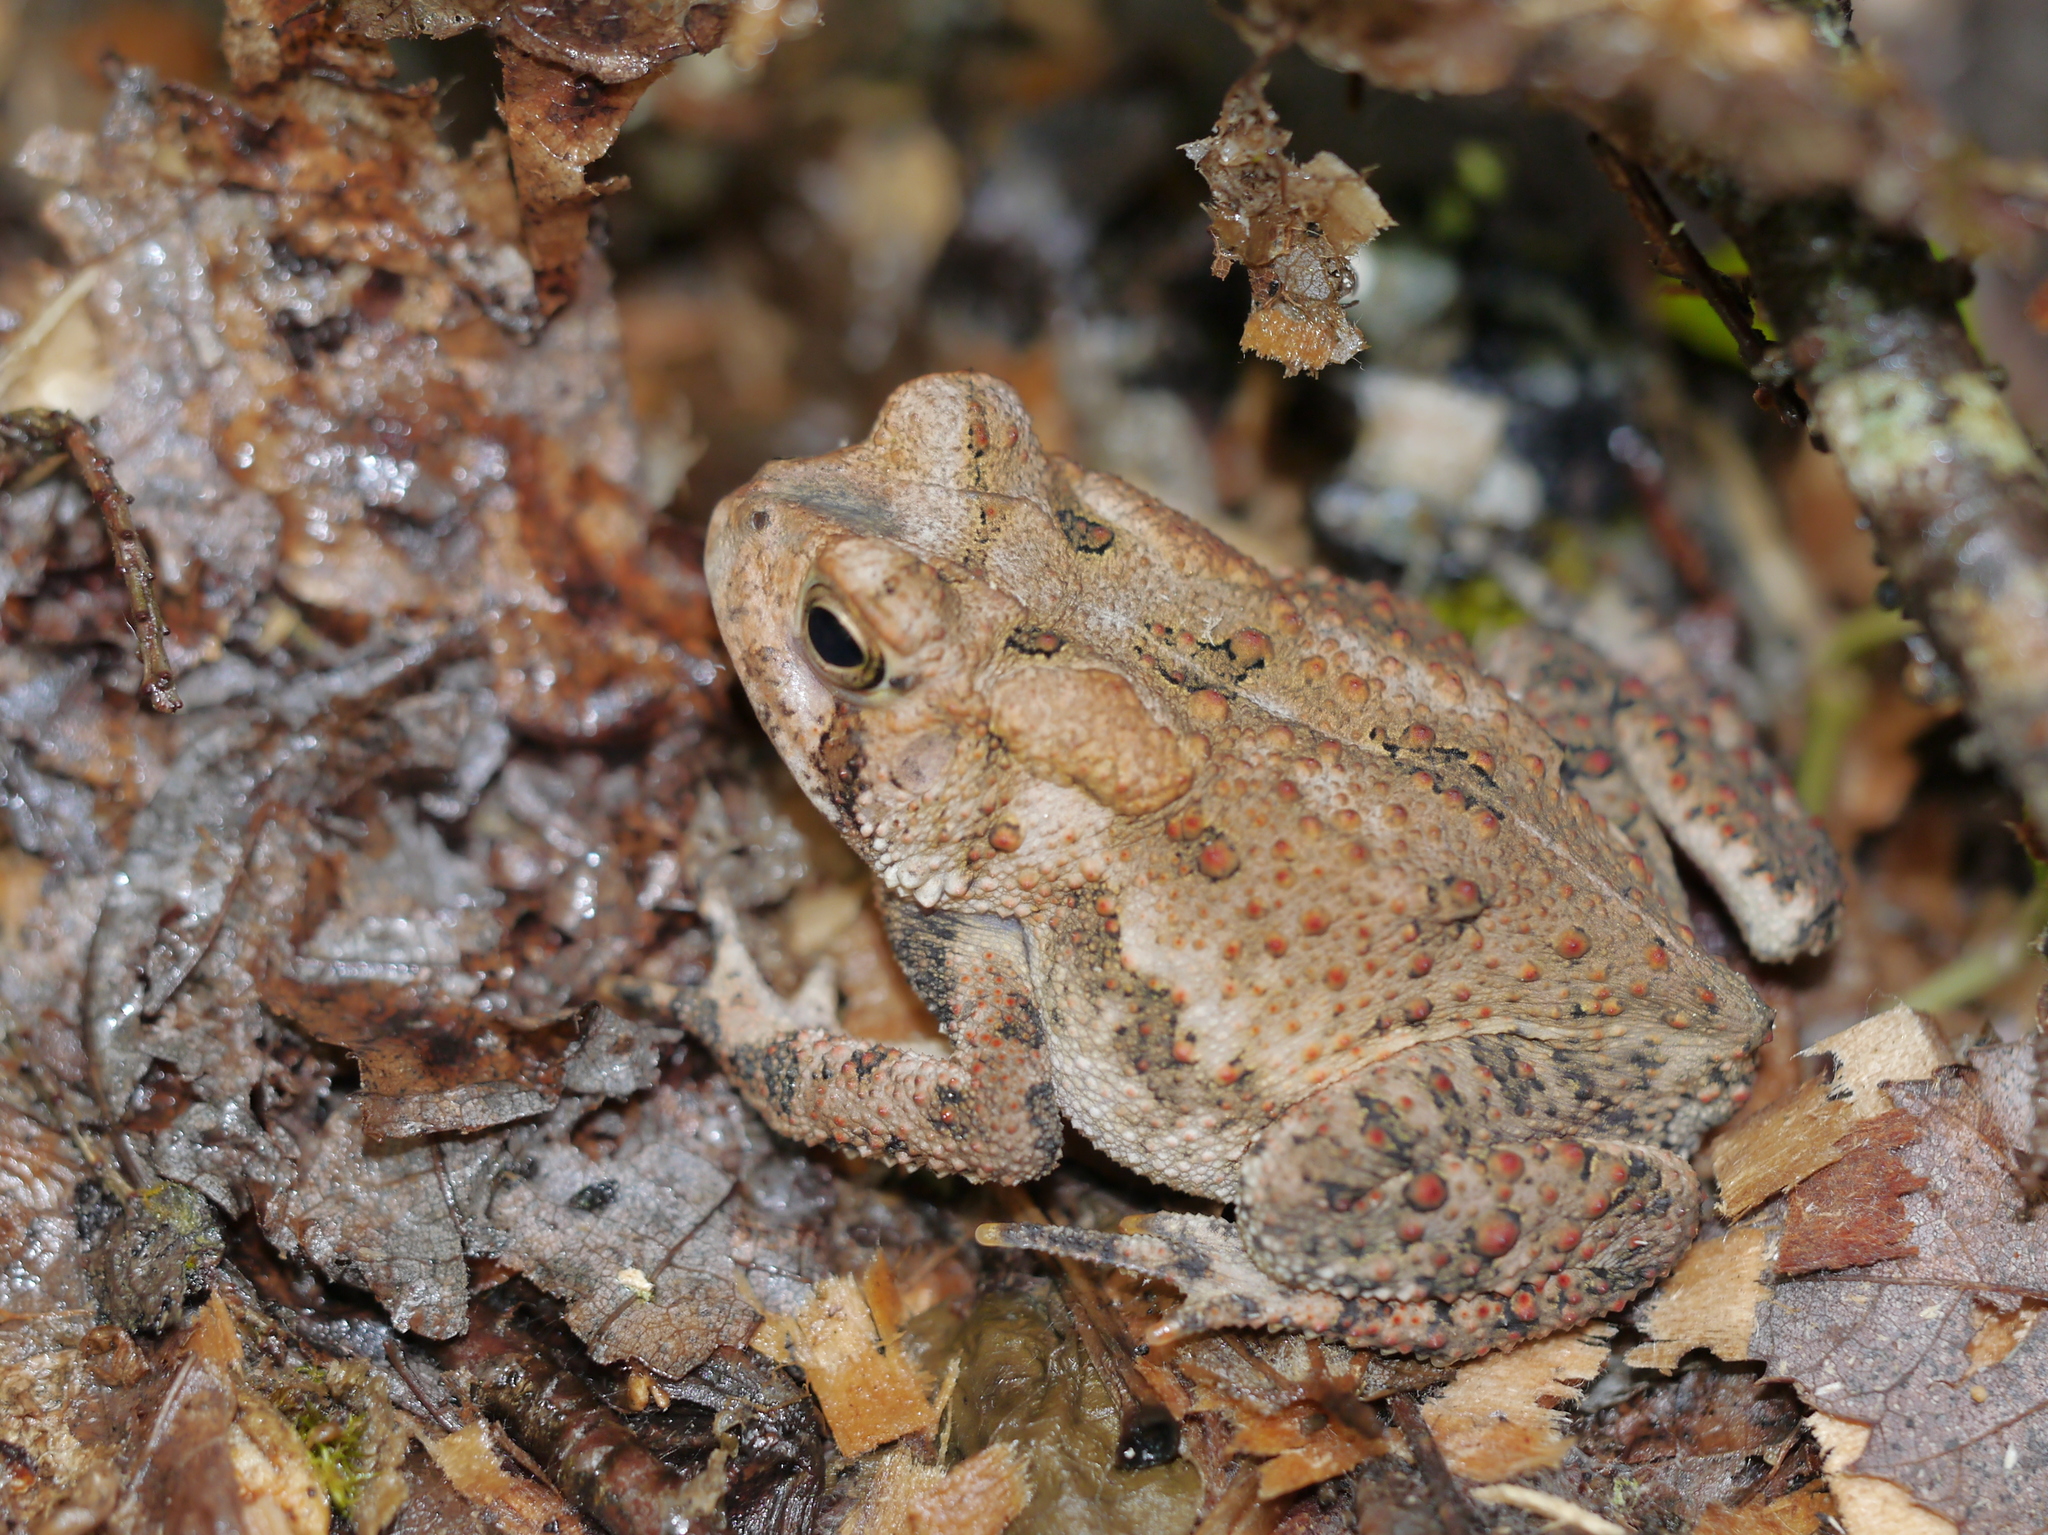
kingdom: Animalia
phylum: Chordata
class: Amphibia
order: Anura
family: Bufonidae
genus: Anaxyrus
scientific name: Anaxyrus americanus
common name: American toad
